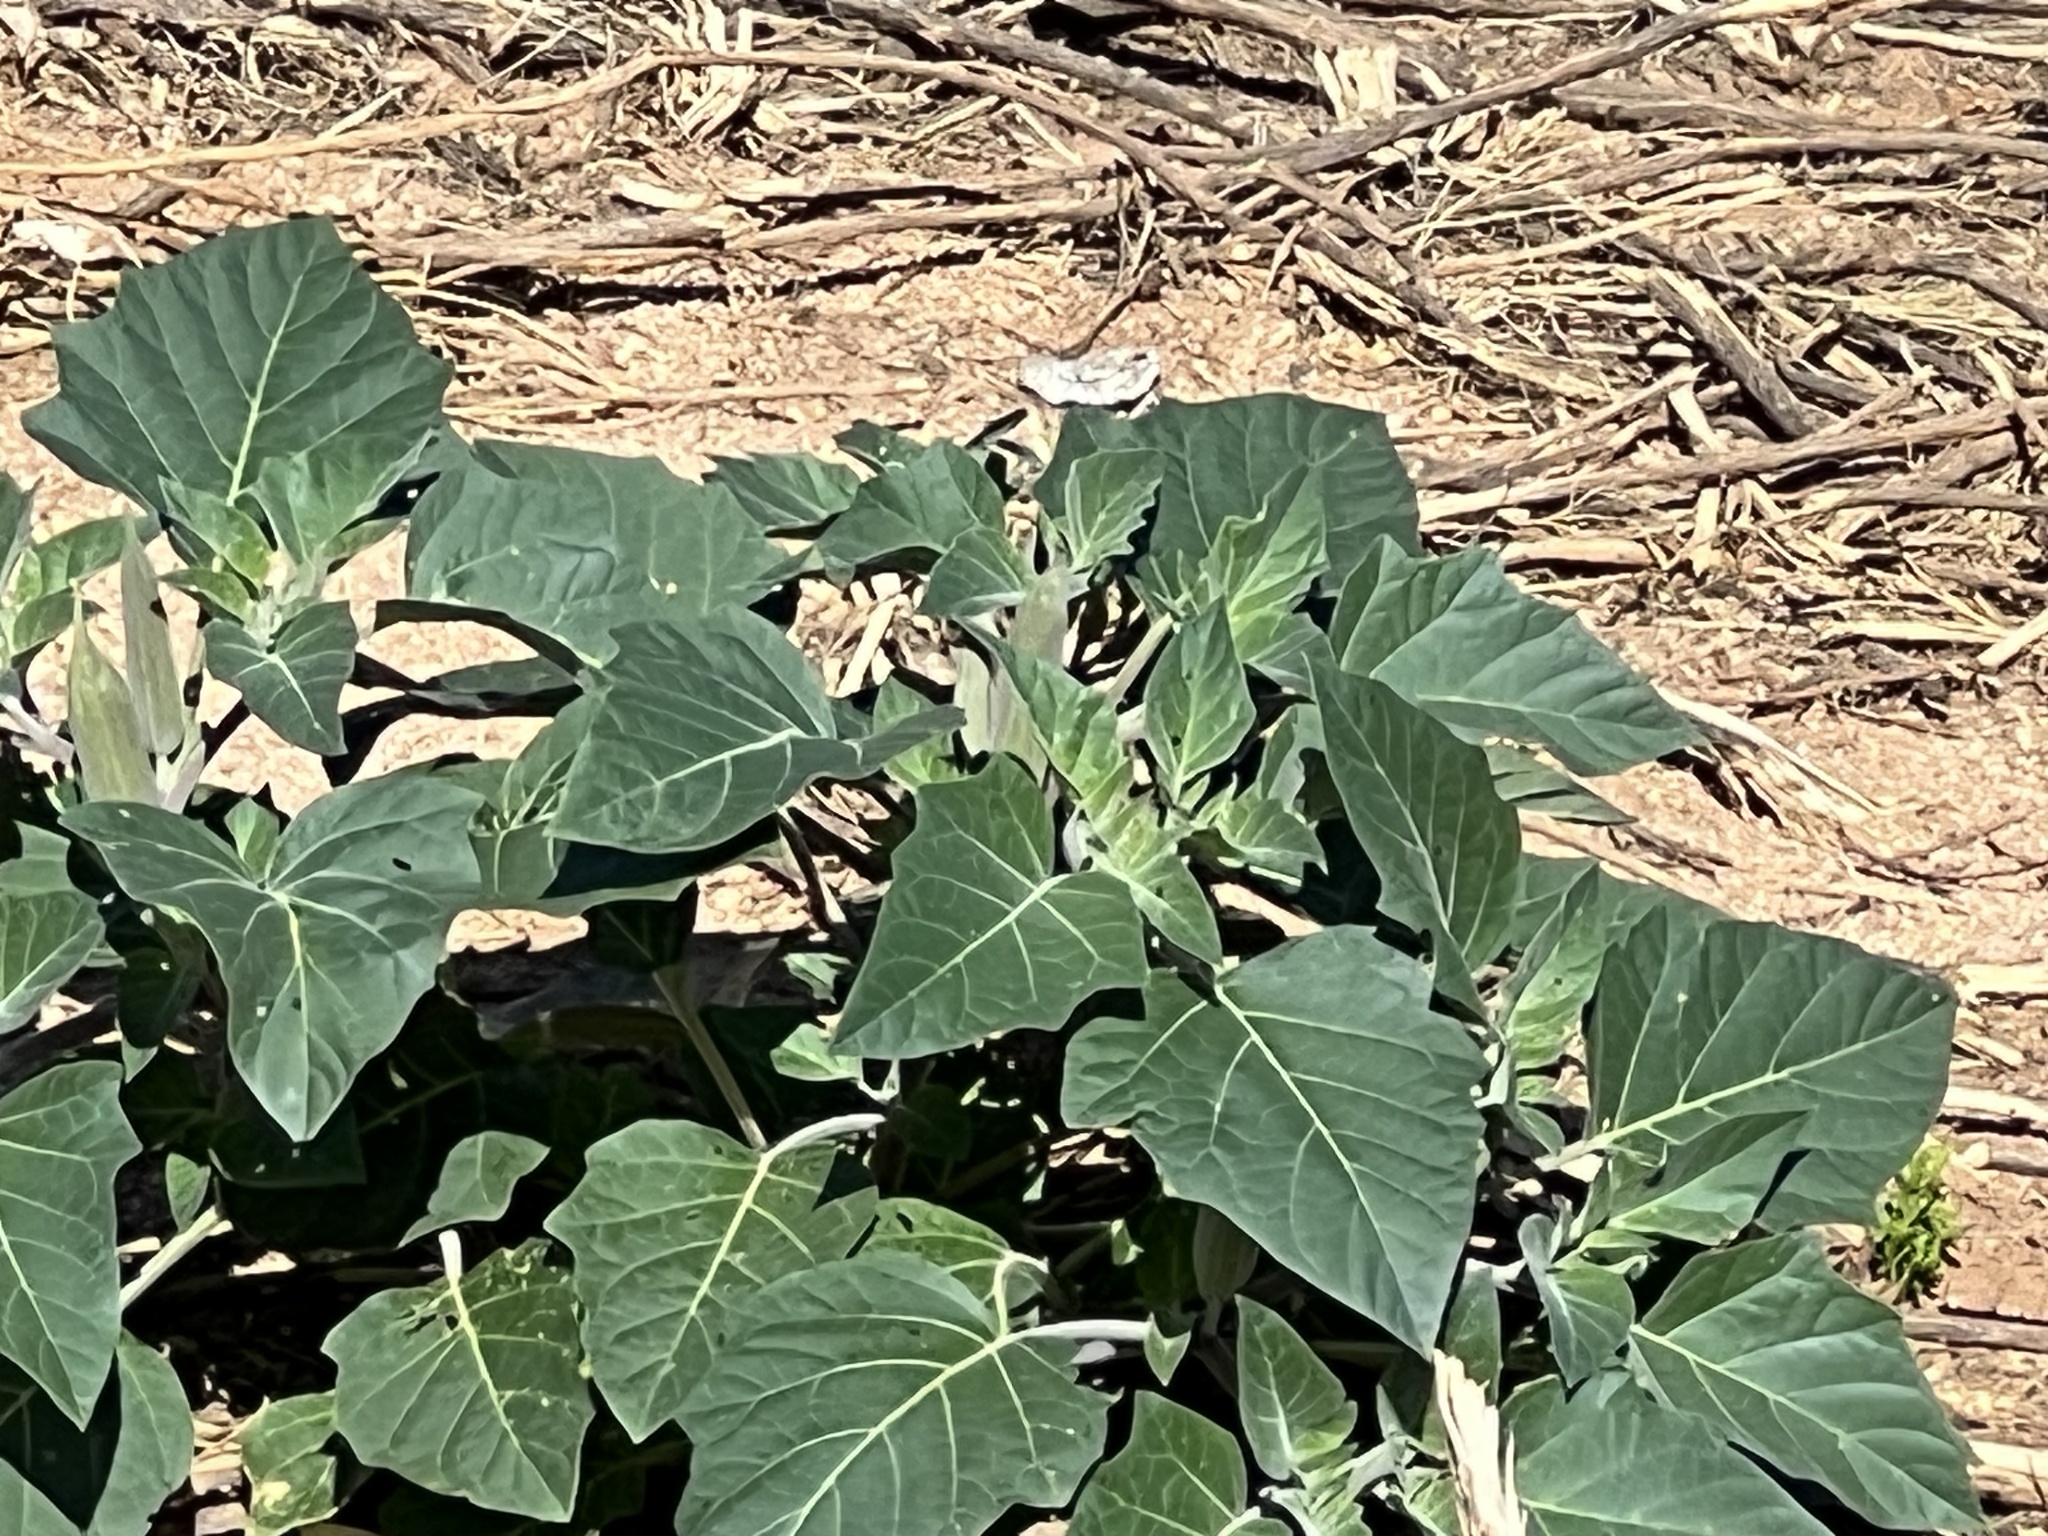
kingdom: Plantae
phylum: Tracheophyta
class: Magnoliopsida
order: Solanales
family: Solanaceae
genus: Datura
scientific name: Datura wrightii
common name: Sacred thorn-apple
